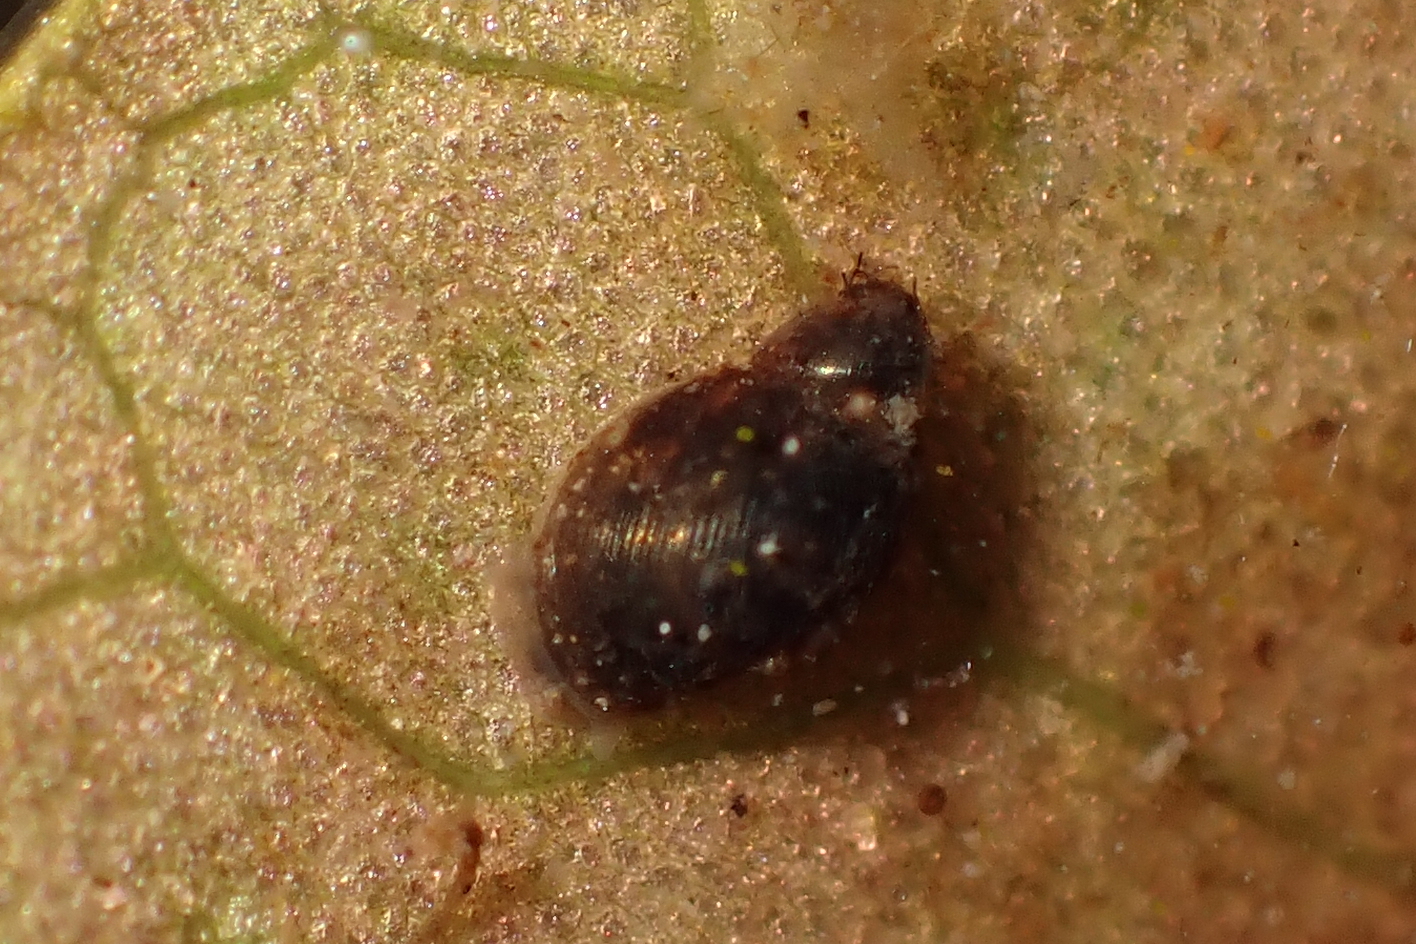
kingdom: Animalia
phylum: Mollusca
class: Gastropoda
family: Lymnaeidae
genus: Pseudosuccinea
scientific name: Pseudosuccinea columella
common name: Mimic lymnaea
